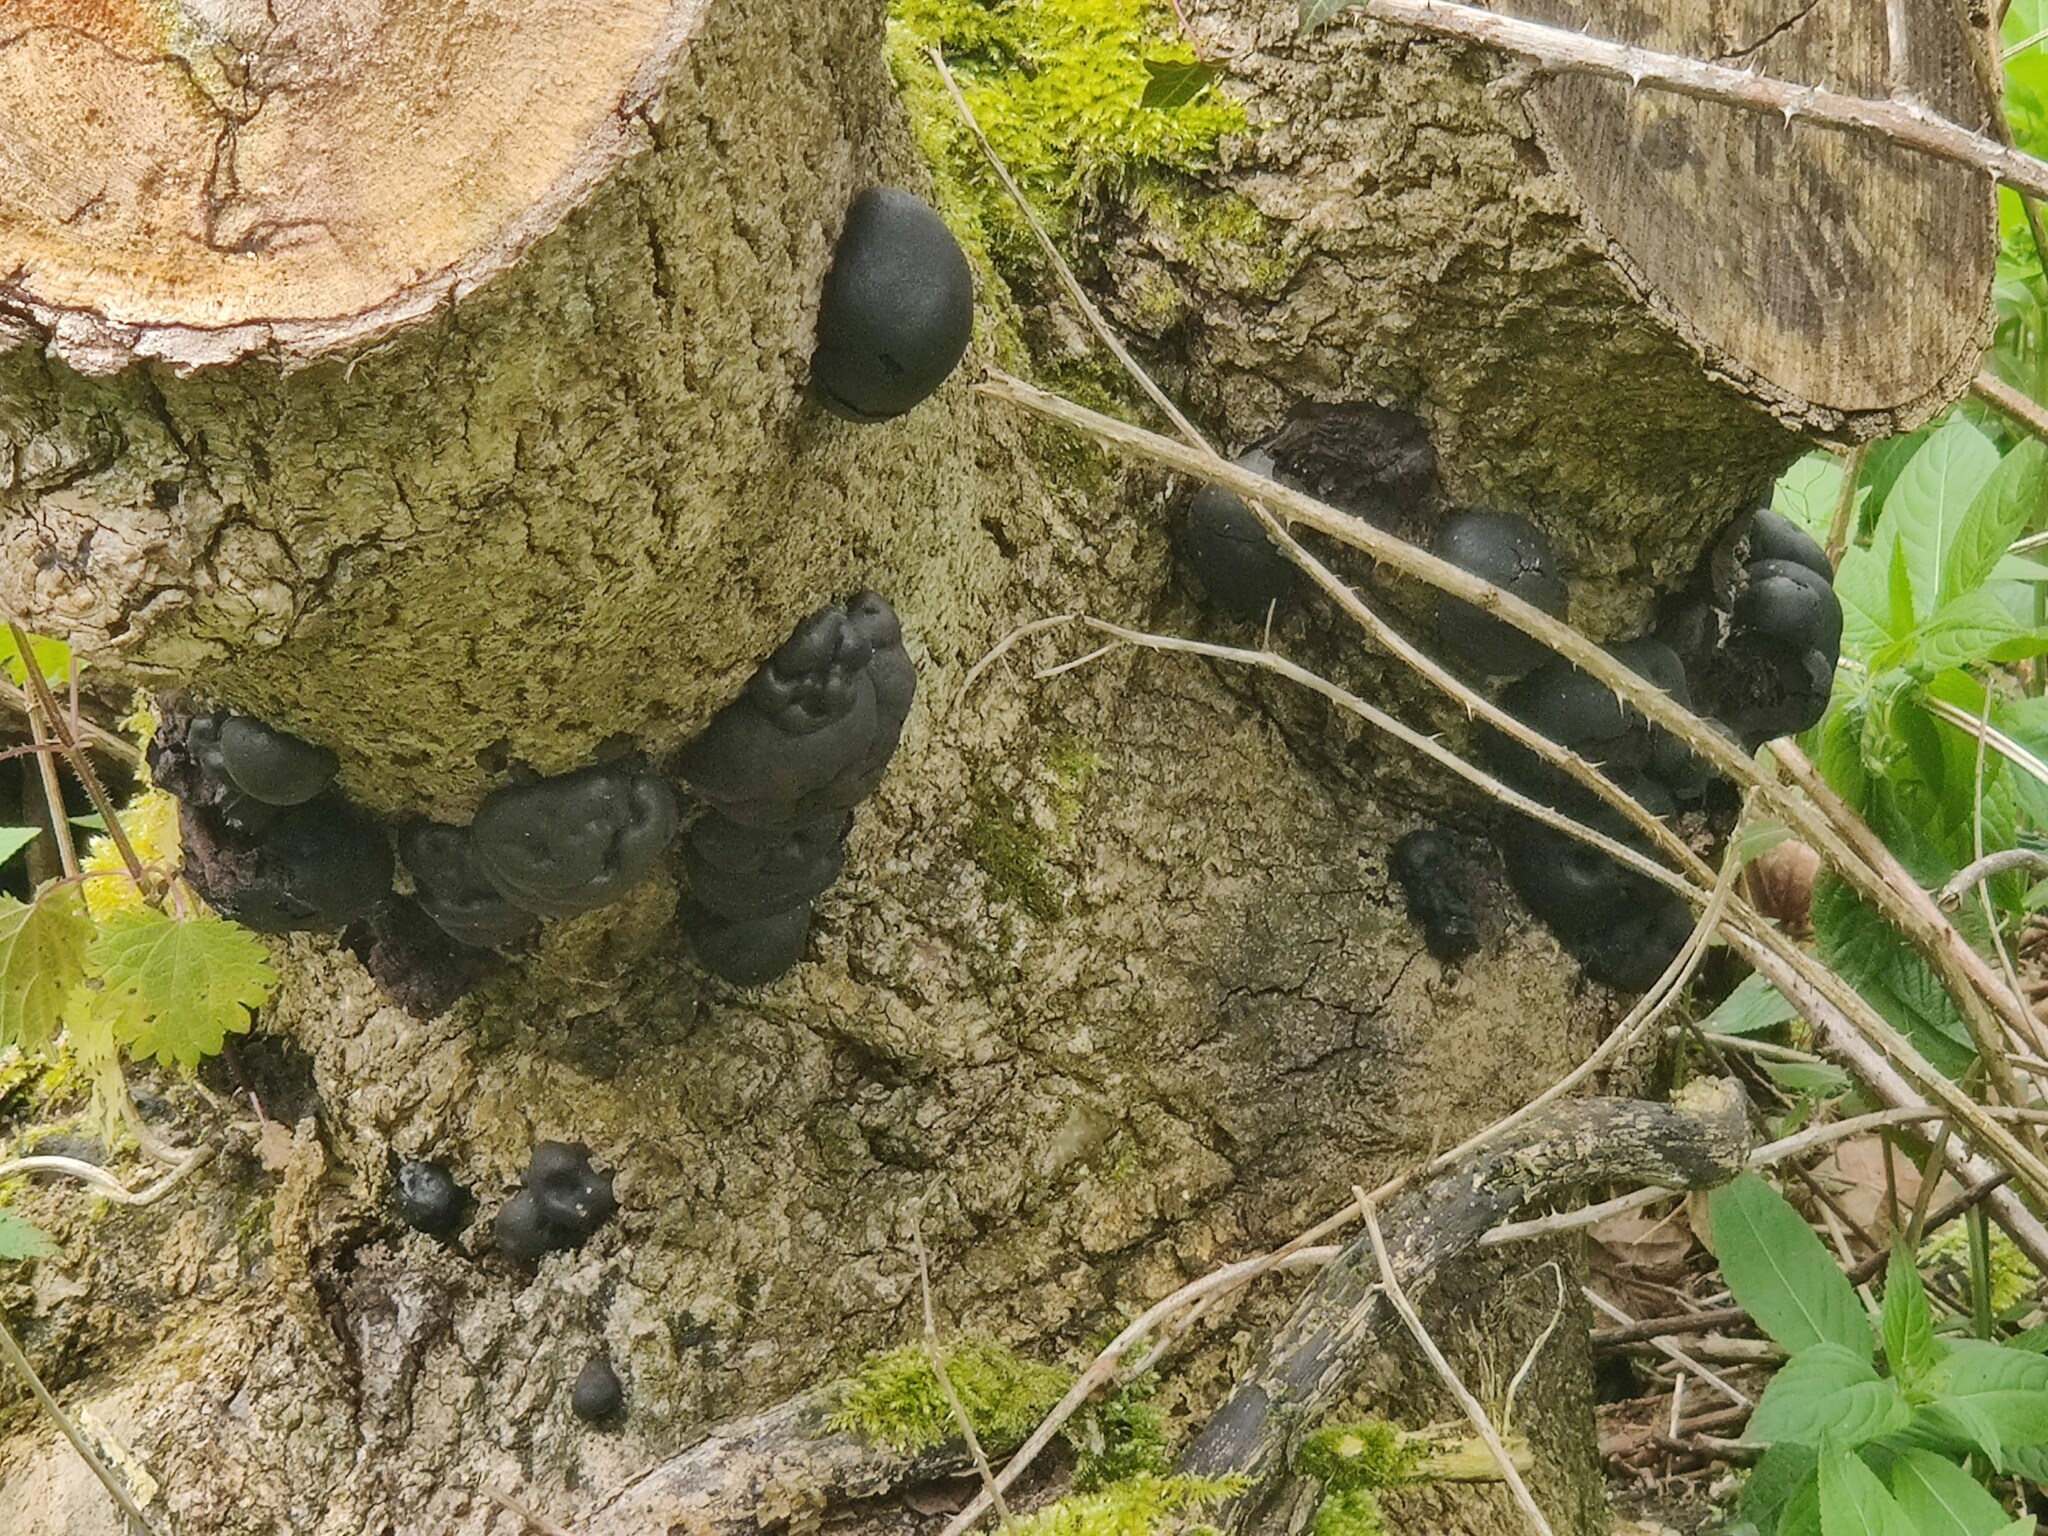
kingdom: Fungi
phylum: Ascomycota
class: Sordariomycetes
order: Xylariales
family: Hypoxylaceae
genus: Daldinia
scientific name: Daldinia concentrica
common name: Cramp balls
